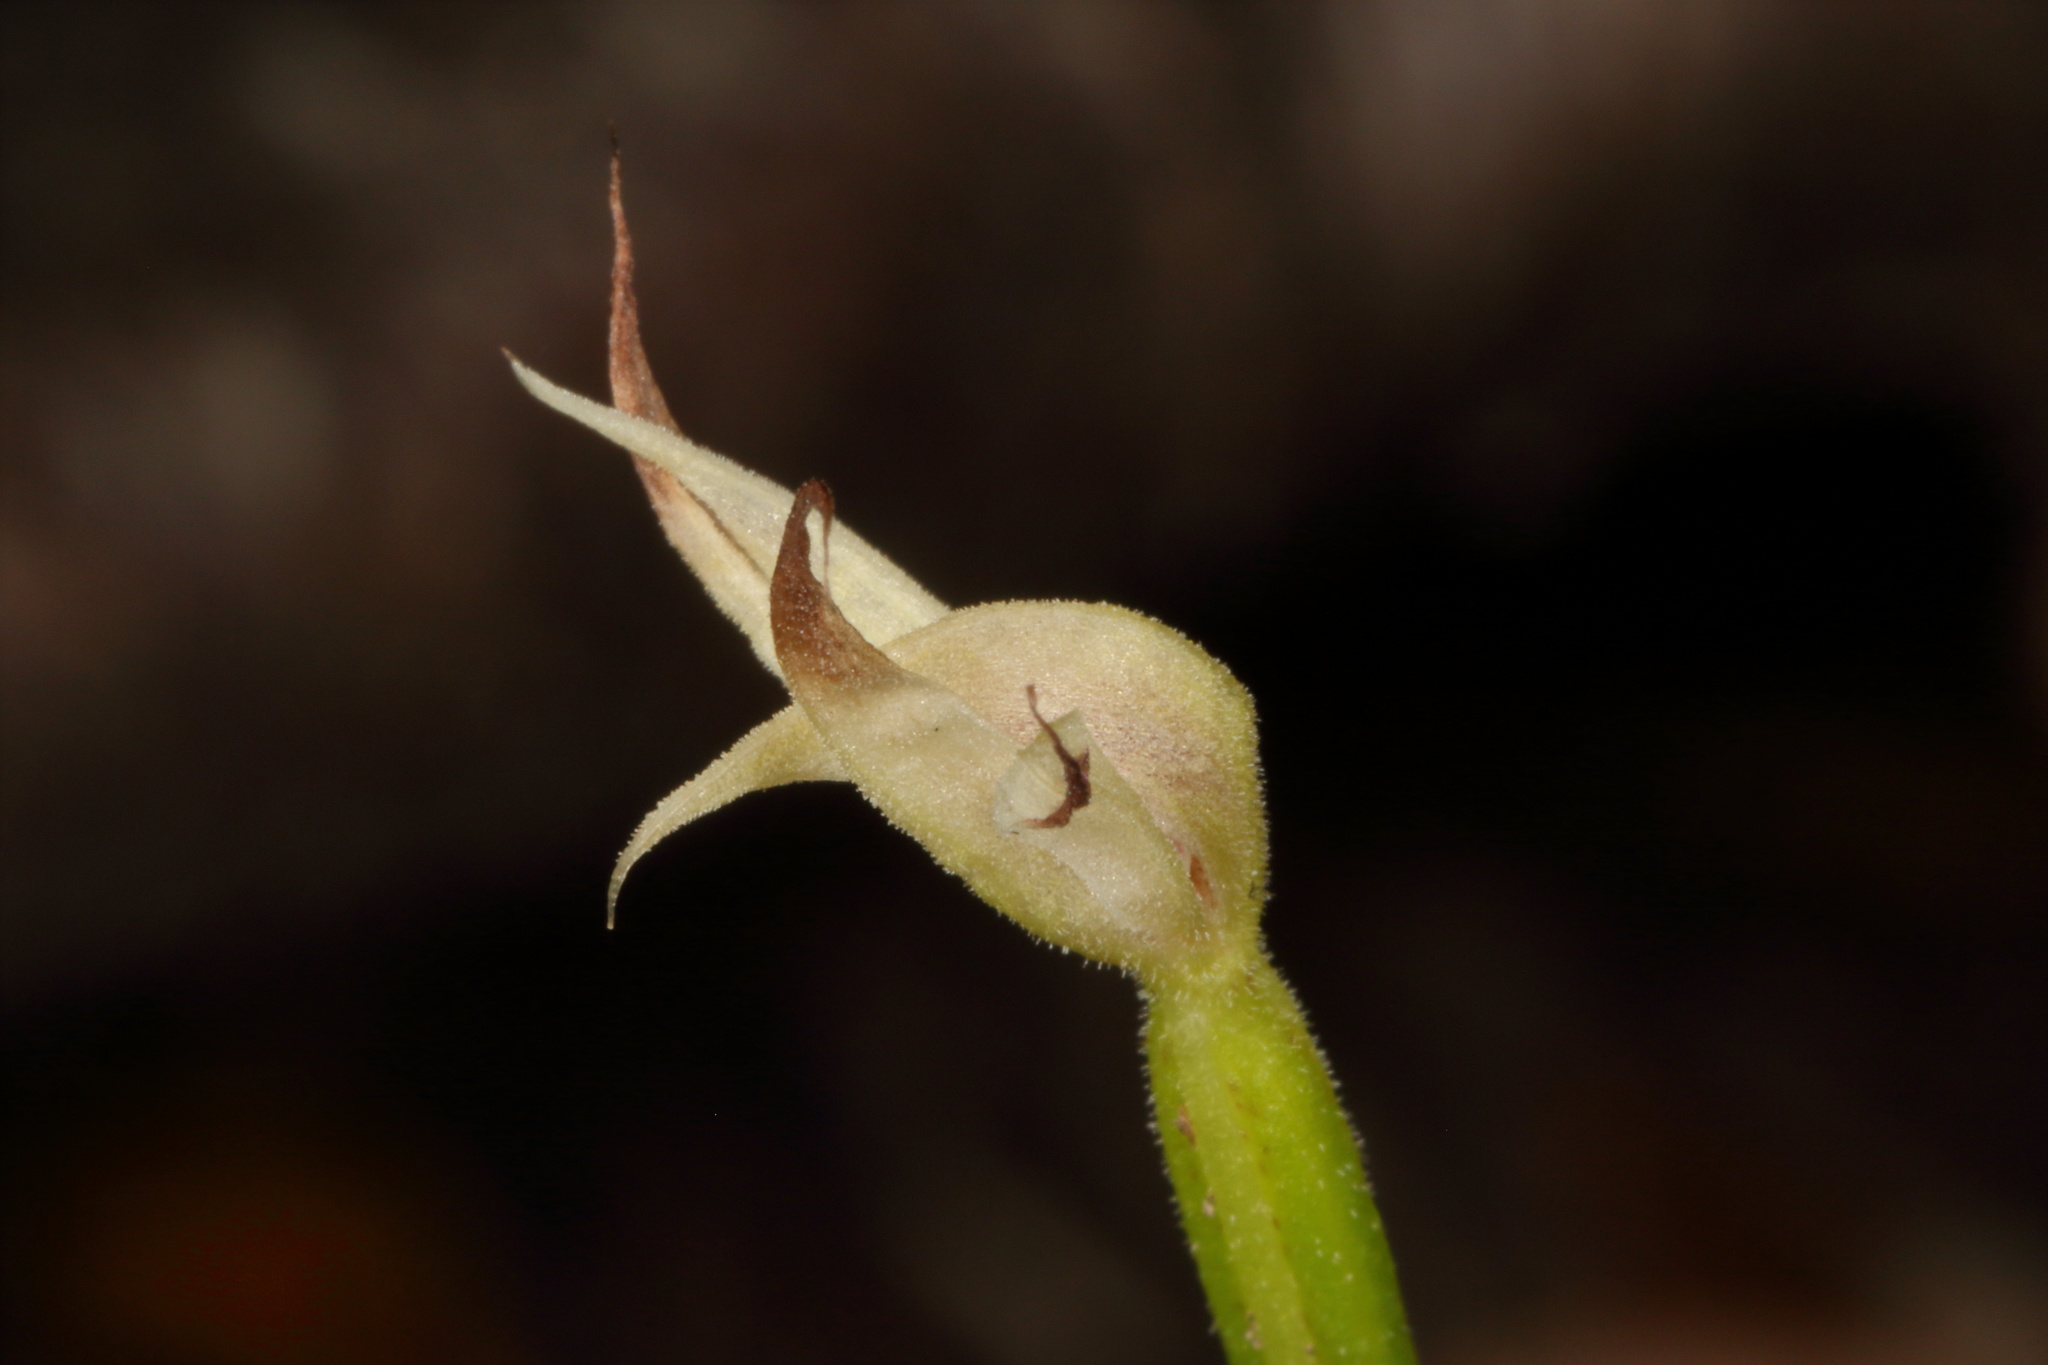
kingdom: Plantae
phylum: Tracheophyta
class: Liliopsida
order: Asparagales
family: Orchidaceae
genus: Adenochilus
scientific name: Adenochilus gracilis
